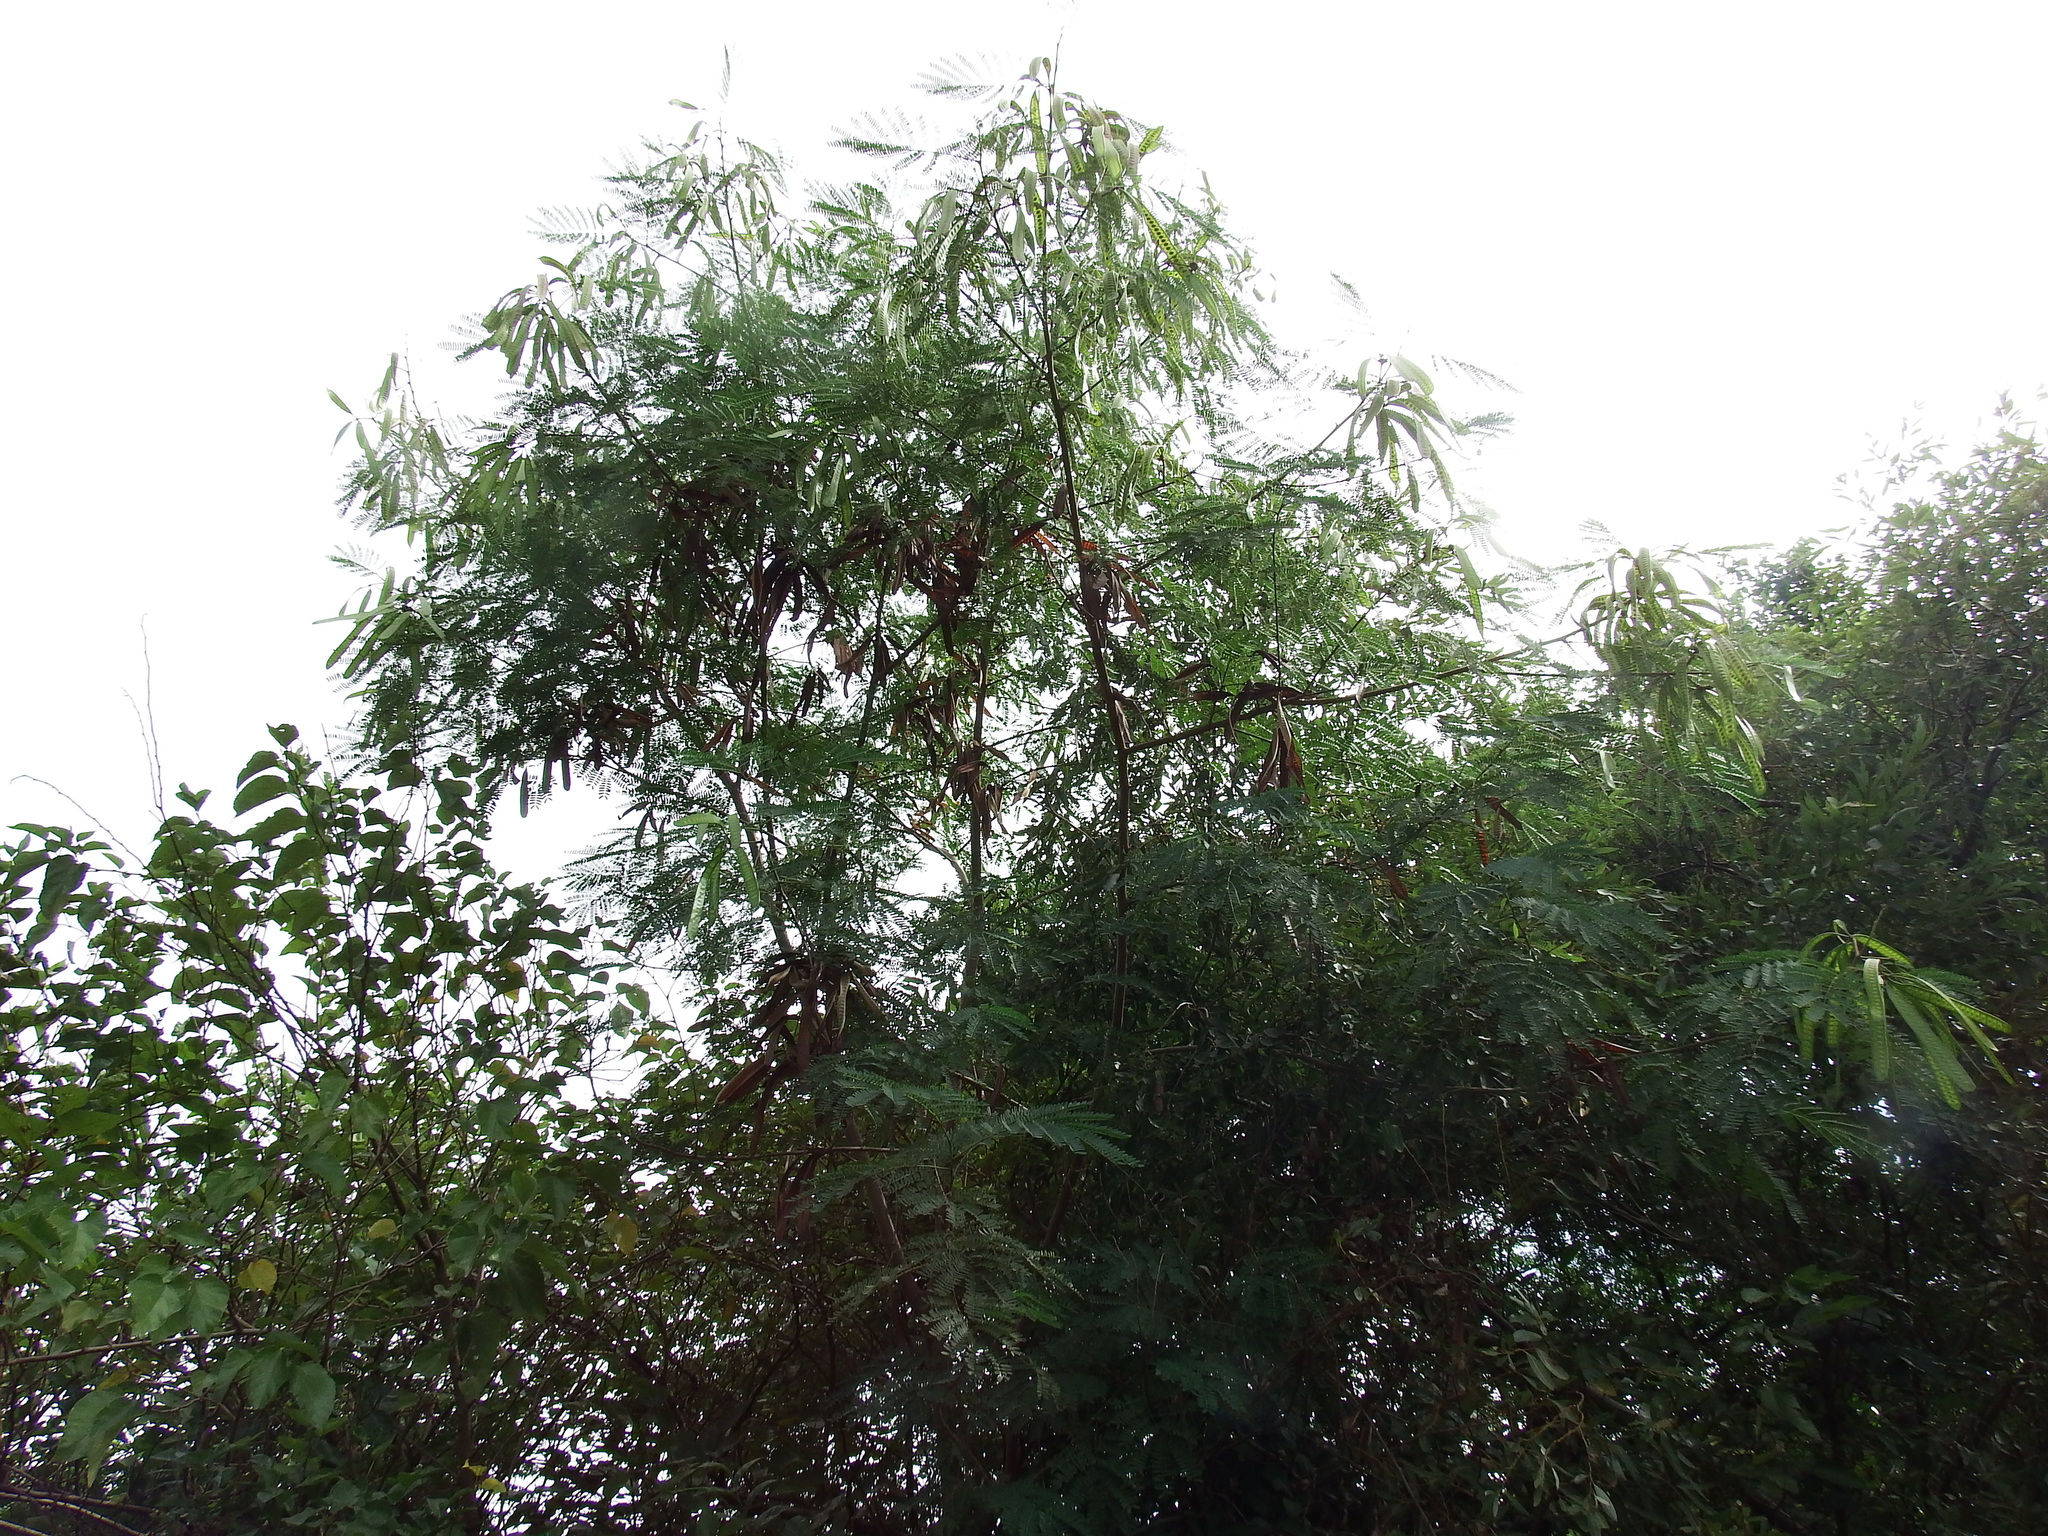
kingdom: Plantae
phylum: Tracheophyta
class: Magnoliopsida
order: Fabales
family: Fabaceae
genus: Leucaena
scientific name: Leucaena leucocephala
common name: White leadtree
